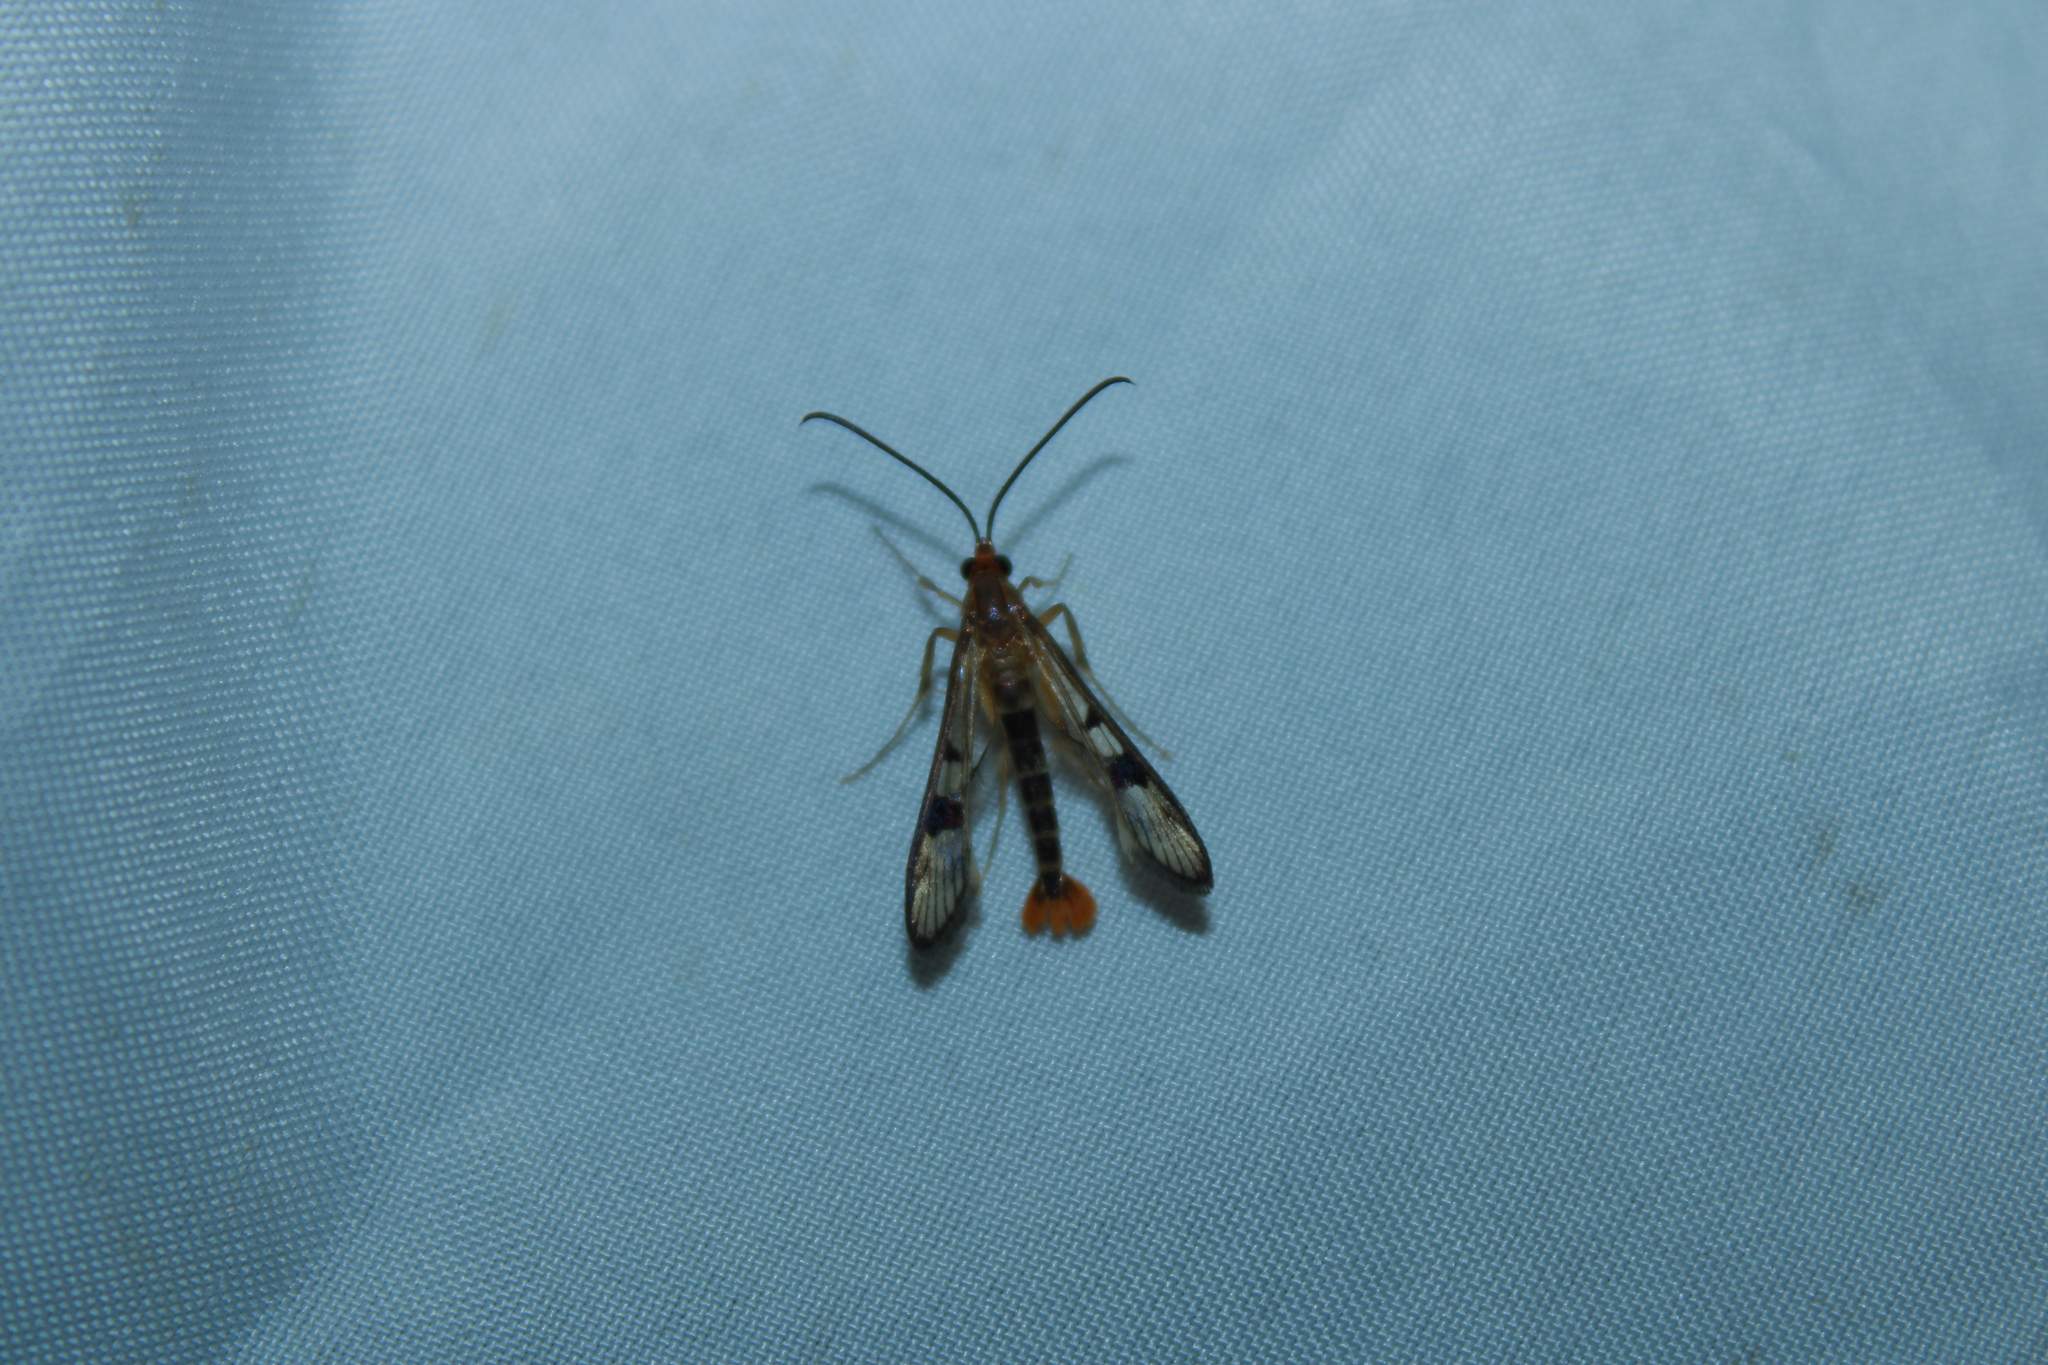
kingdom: Animalia
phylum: Arthropoda
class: Insecta
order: Lepidoptera
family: Sesiidae
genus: Synanthedon
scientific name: Synanthedon acerni
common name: Maple callus borer moth
